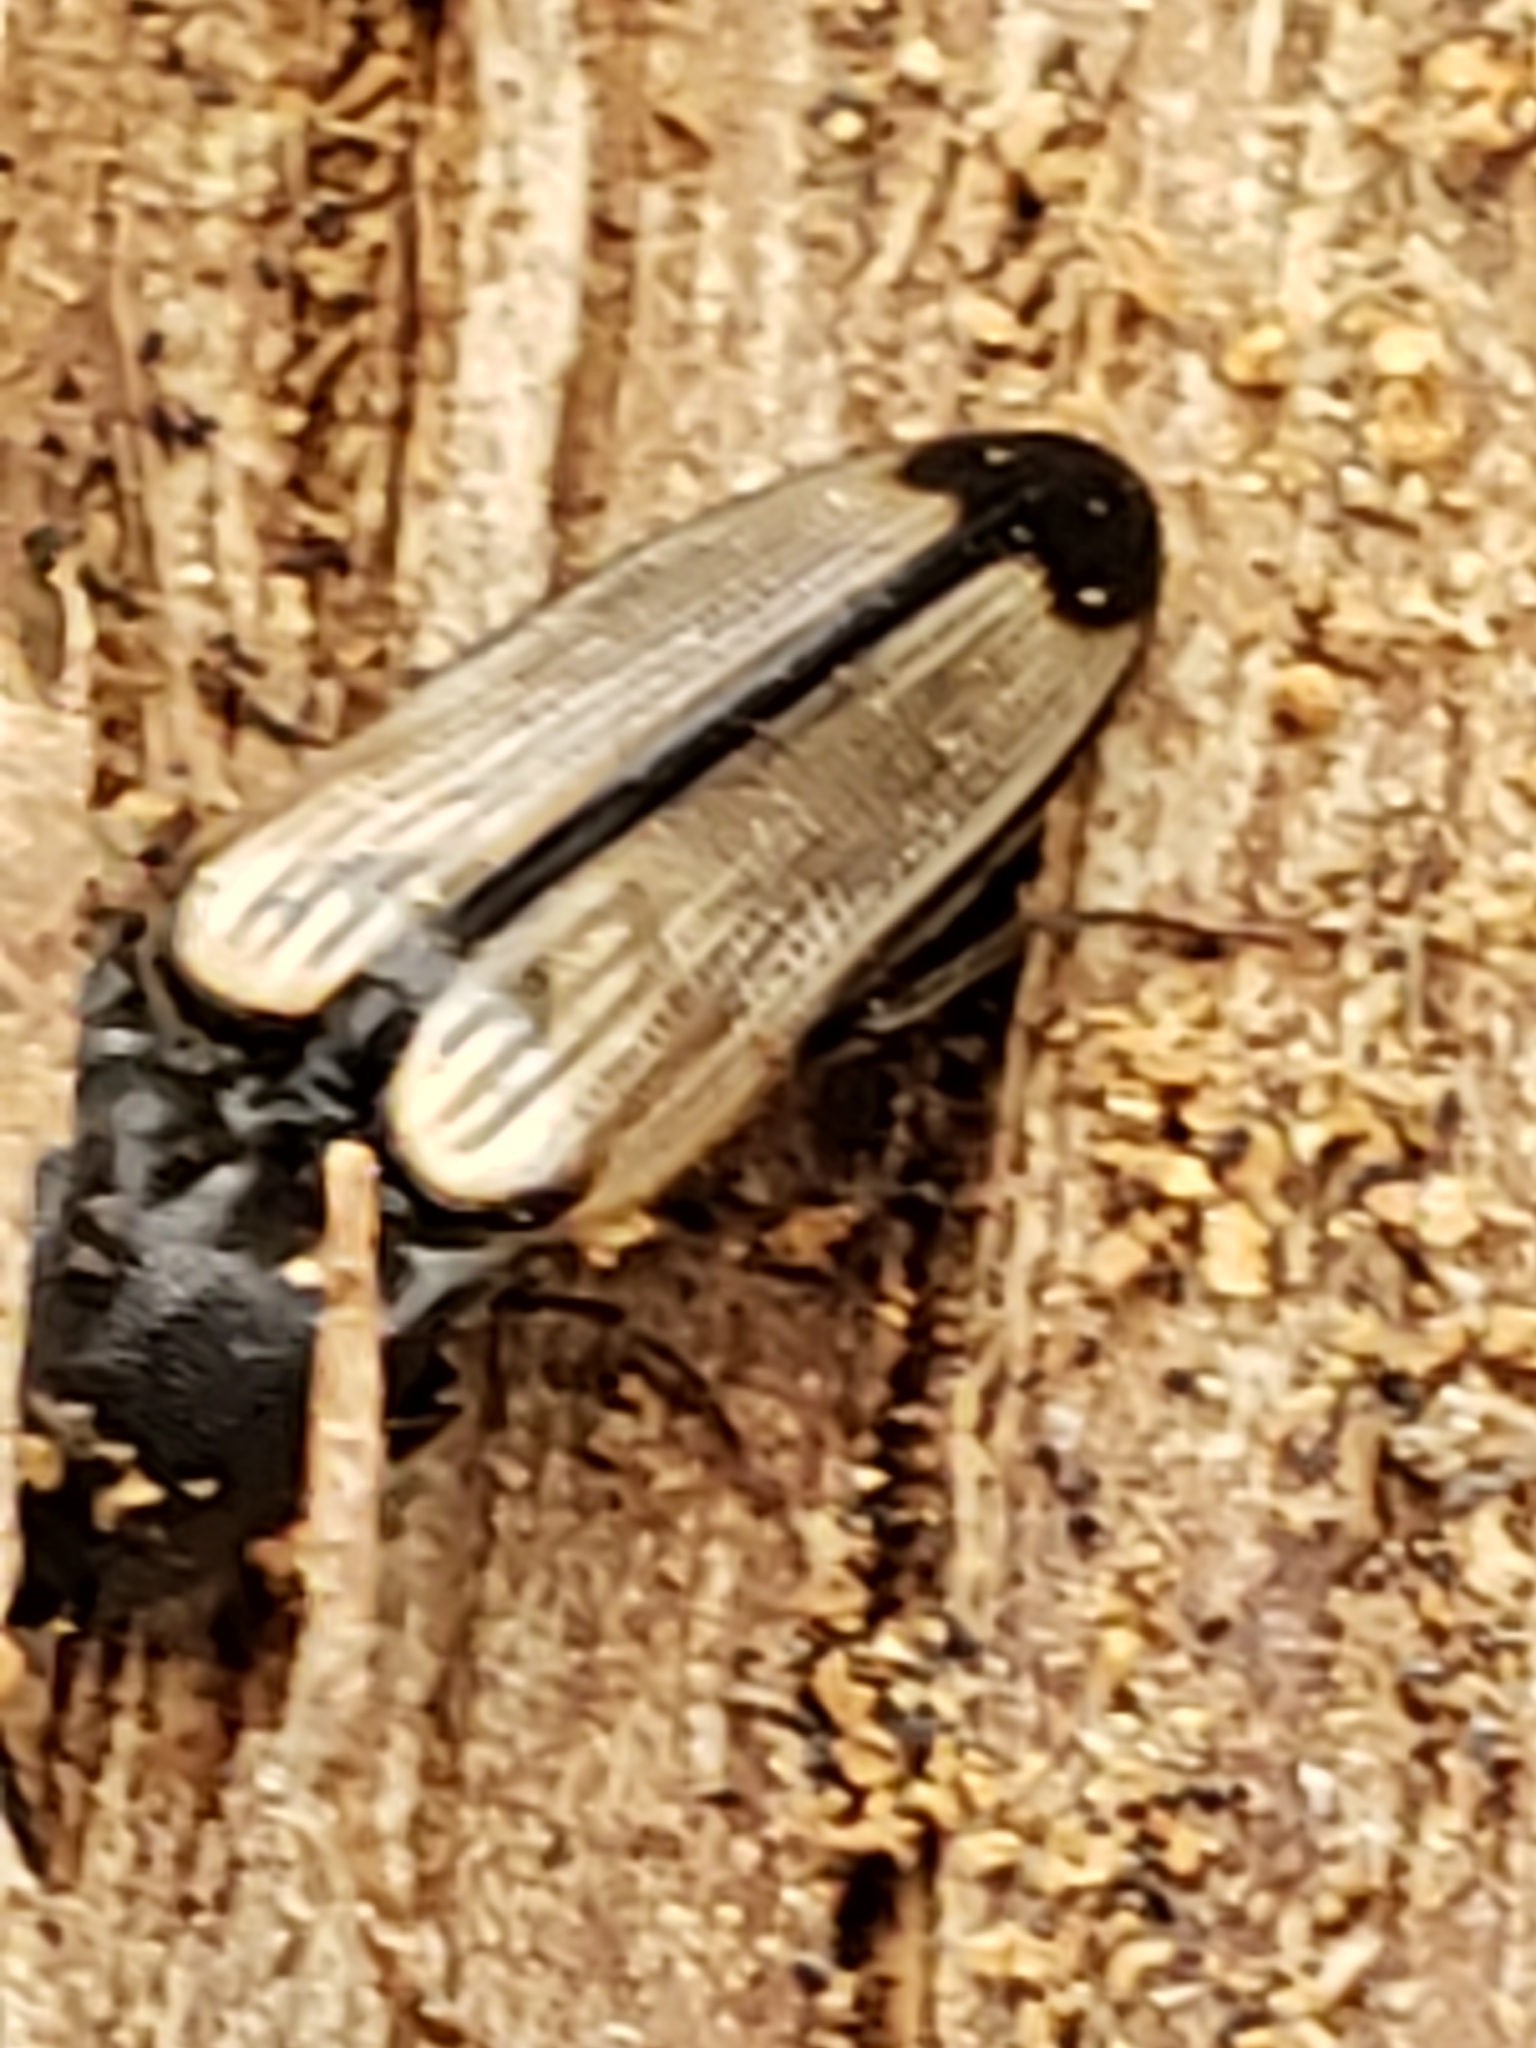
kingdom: Animalia
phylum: Arthropoda
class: Insecta
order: Coleoptera
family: Elateridae
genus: Ampedus
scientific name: Ampedus linteus
